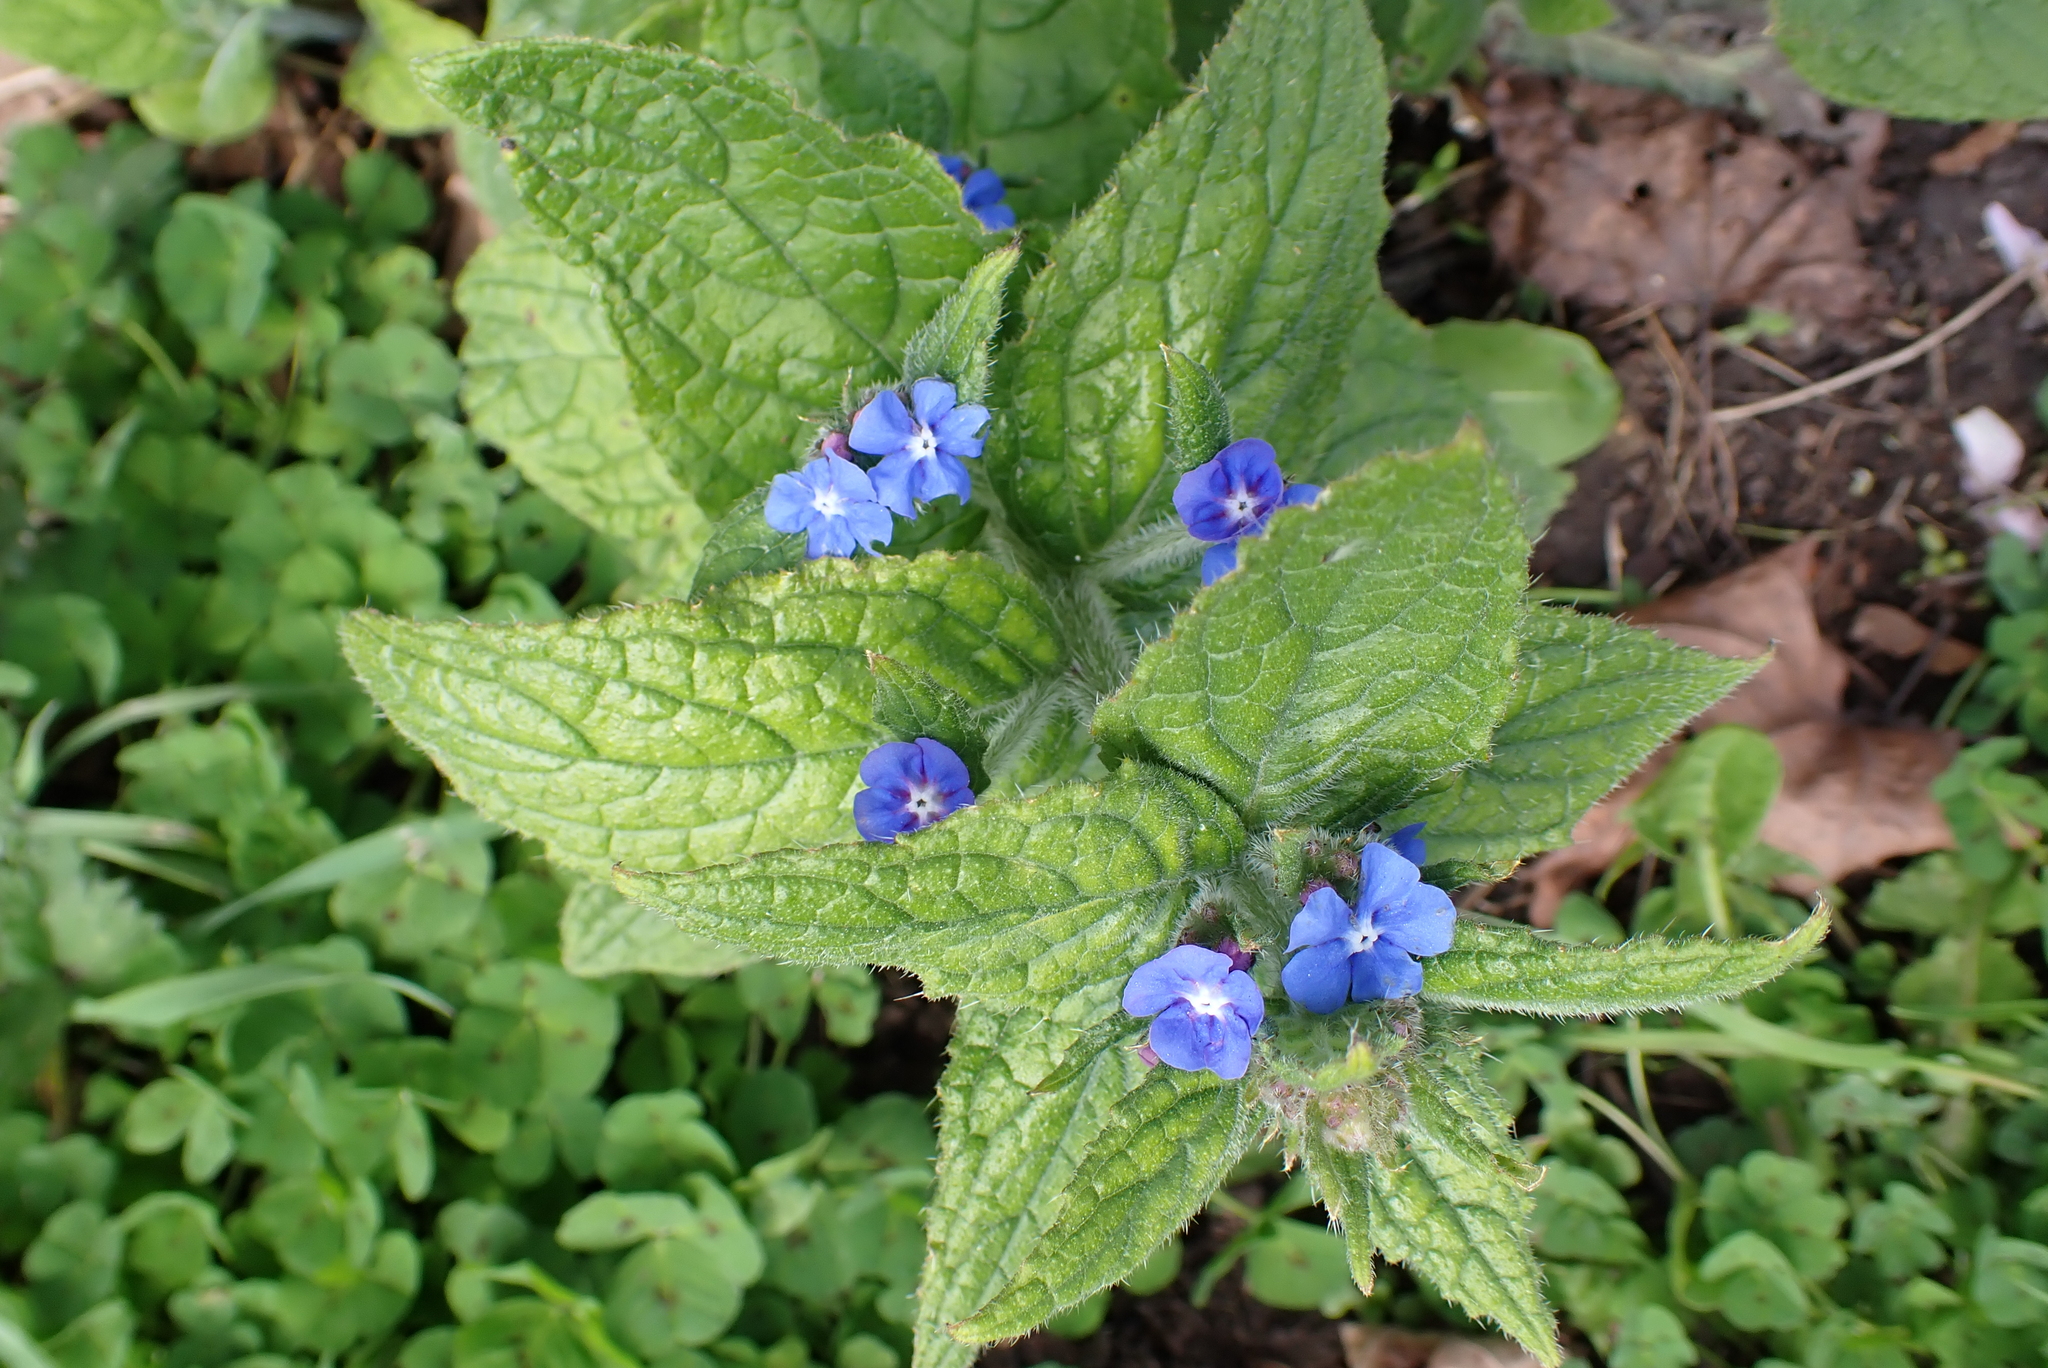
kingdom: Plantae
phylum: Tracheophyta
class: Magnoliopsida
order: Boraginales
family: Boraginaceae
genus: Pentaglottis
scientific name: Pentaglottis sempervirens
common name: Green alkanet
